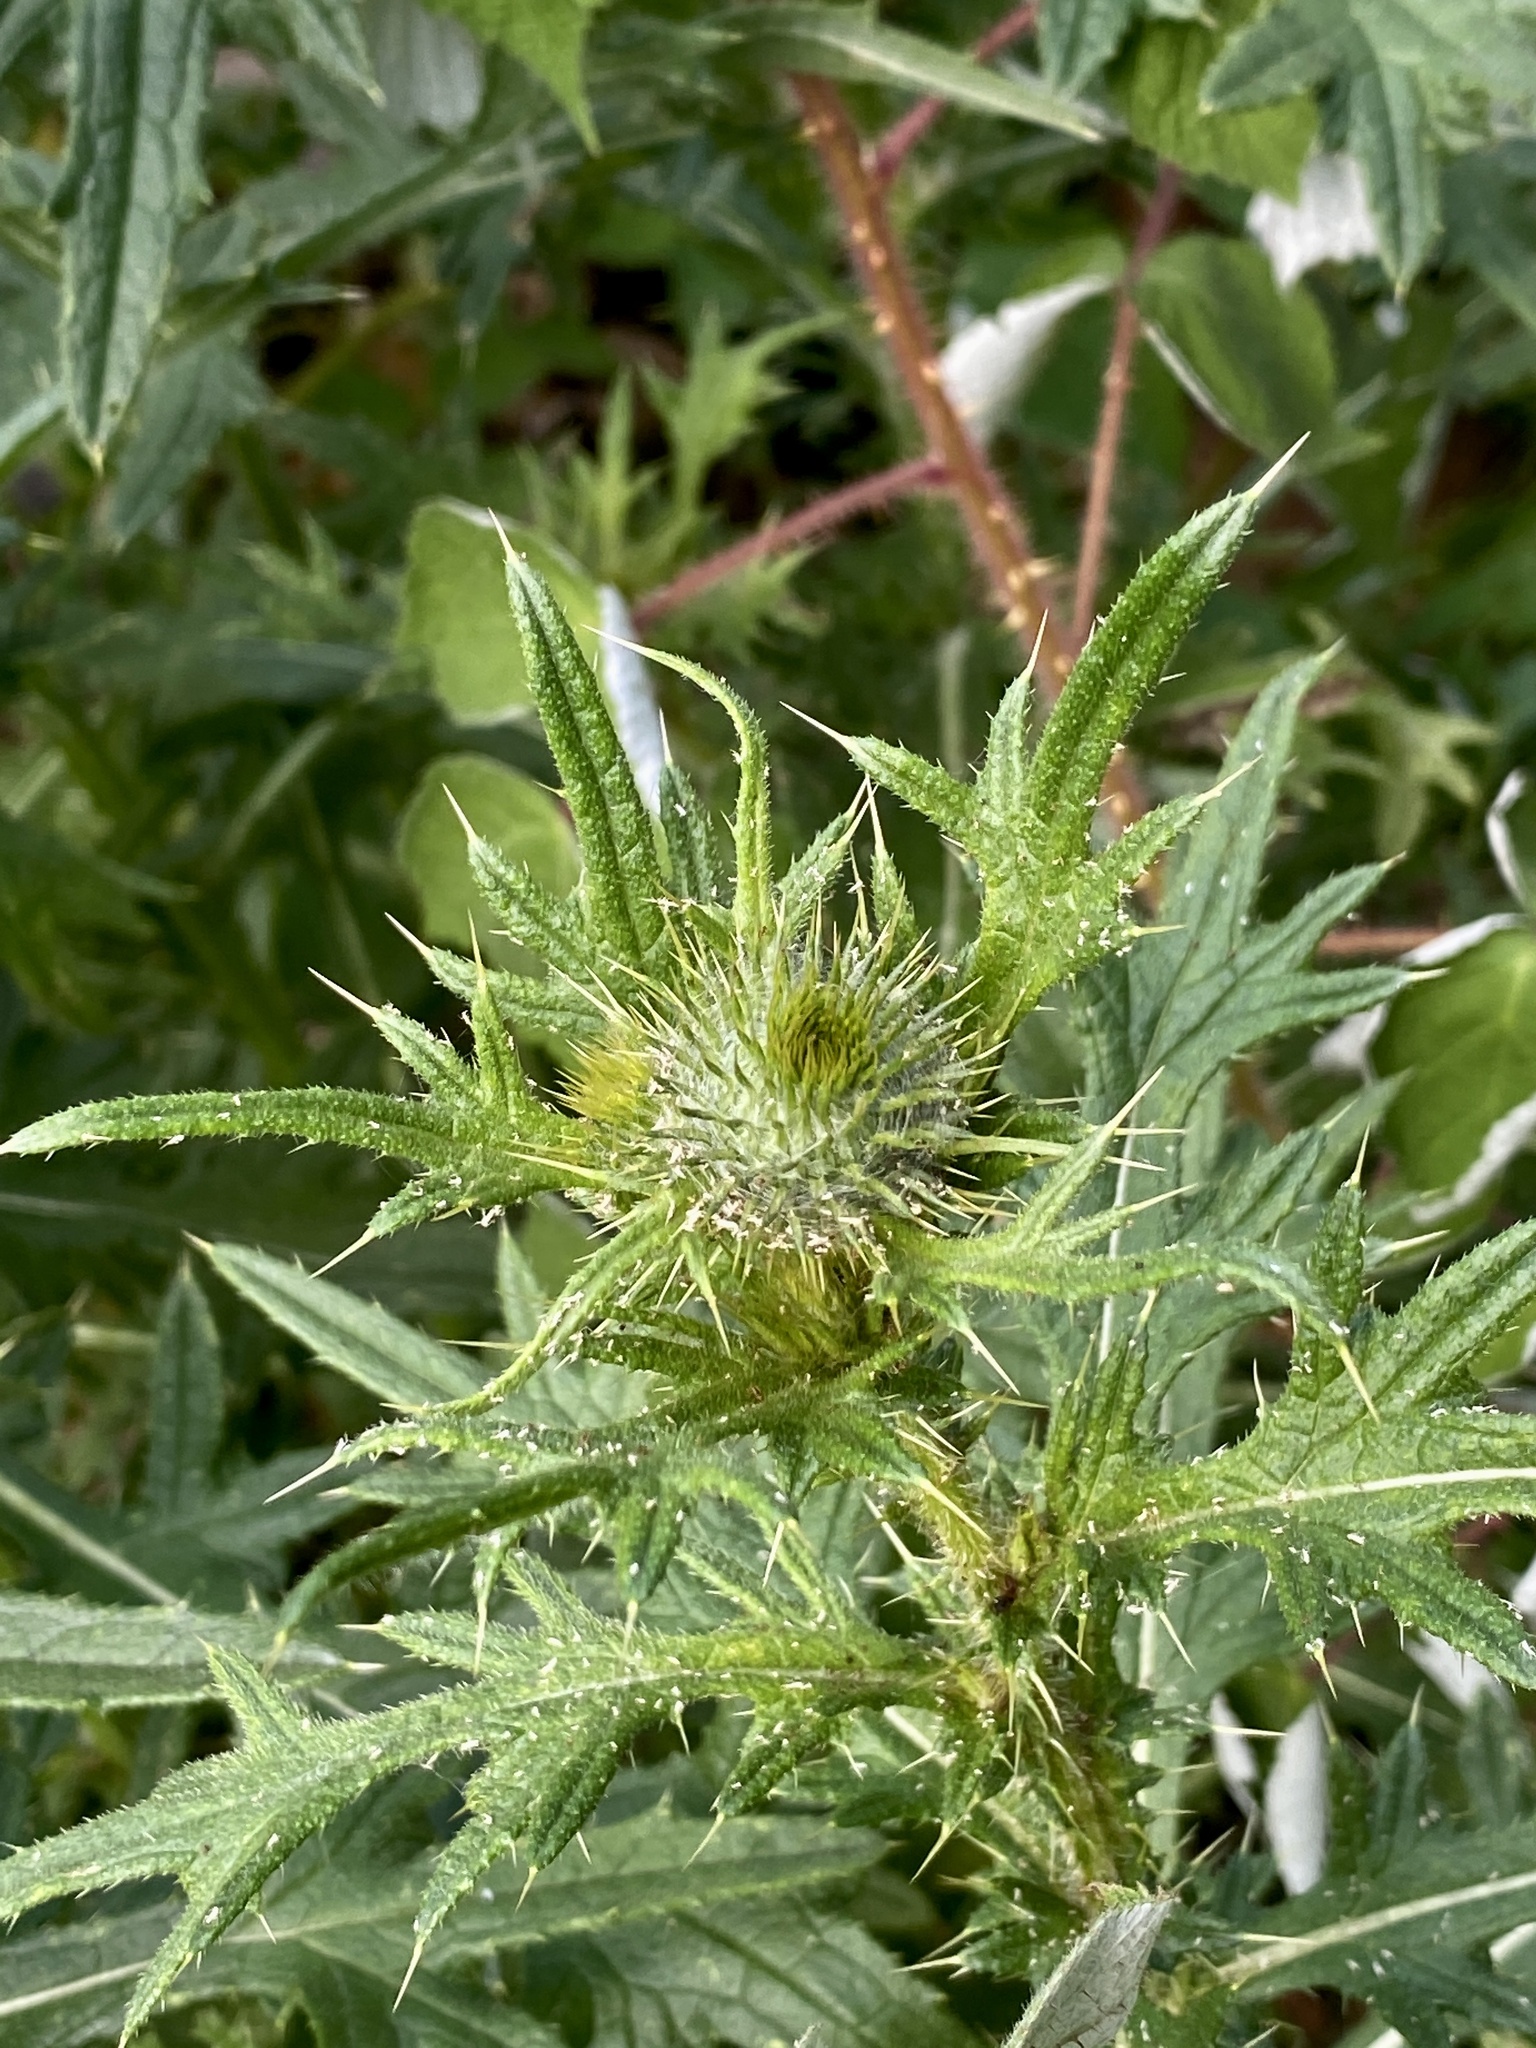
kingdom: Plantae
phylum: Tracheophyta
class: Magnoliopsida
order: Asterales
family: Asteraceae
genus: Cirsium
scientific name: Cirsium vulgare
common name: Bull thistle
